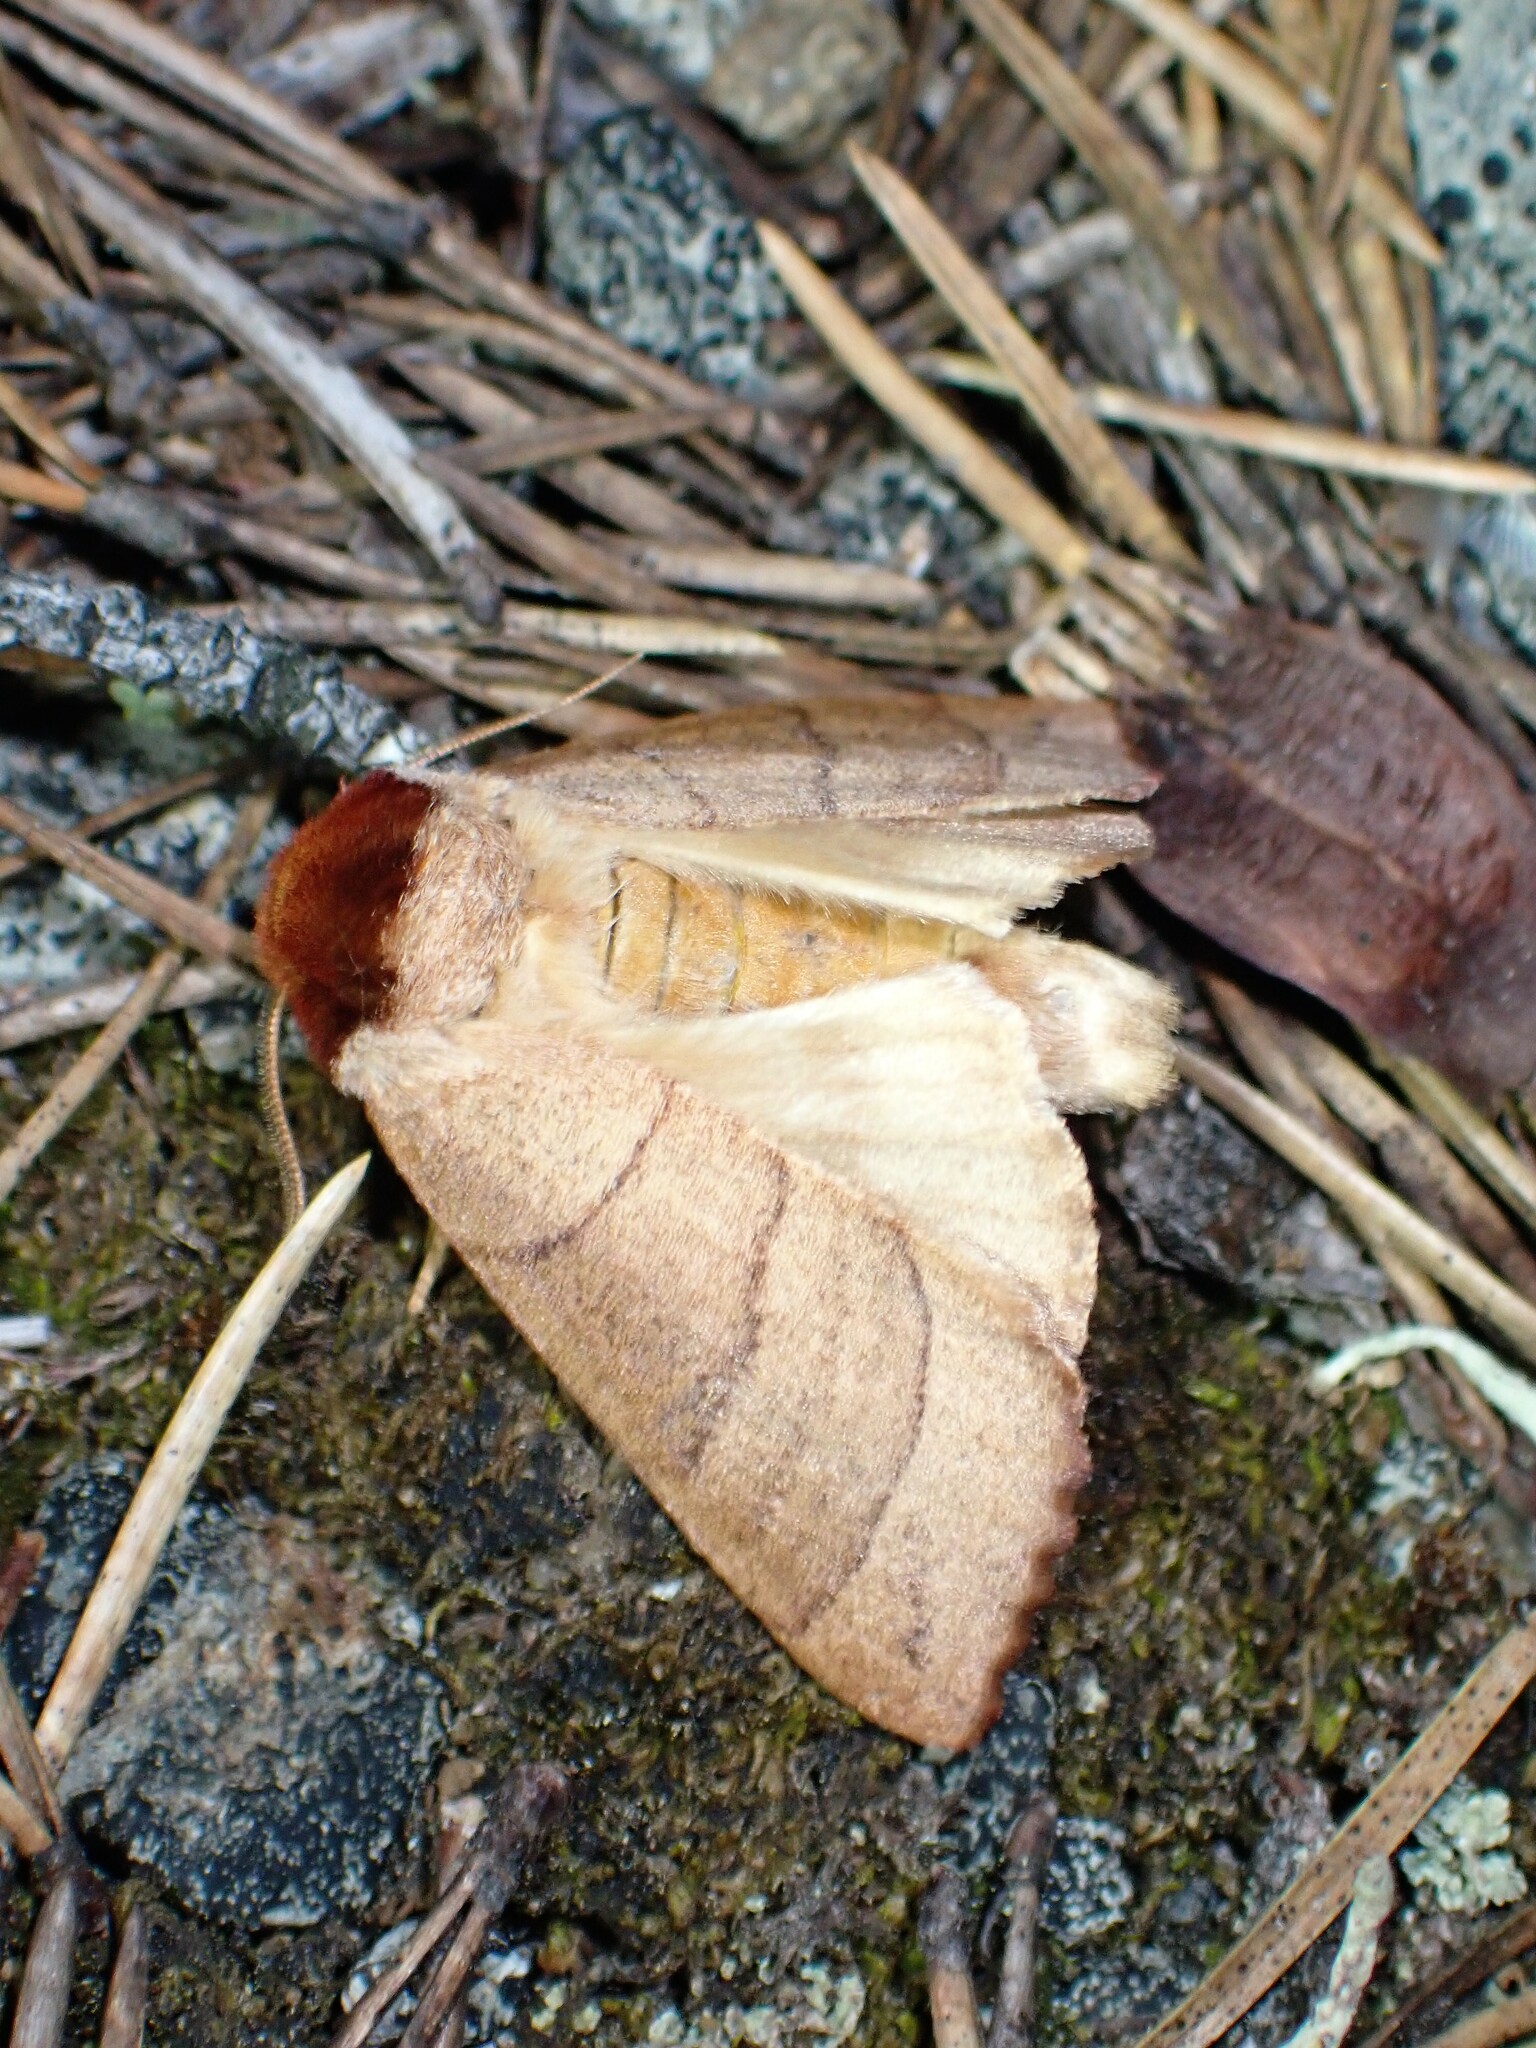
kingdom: Animalia
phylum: Arthropoda
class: Insecta
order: Lepidoptera
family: Notodontidae
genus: Datana
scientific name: Datana ministra
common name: Yellow-necked caterpillar moth
